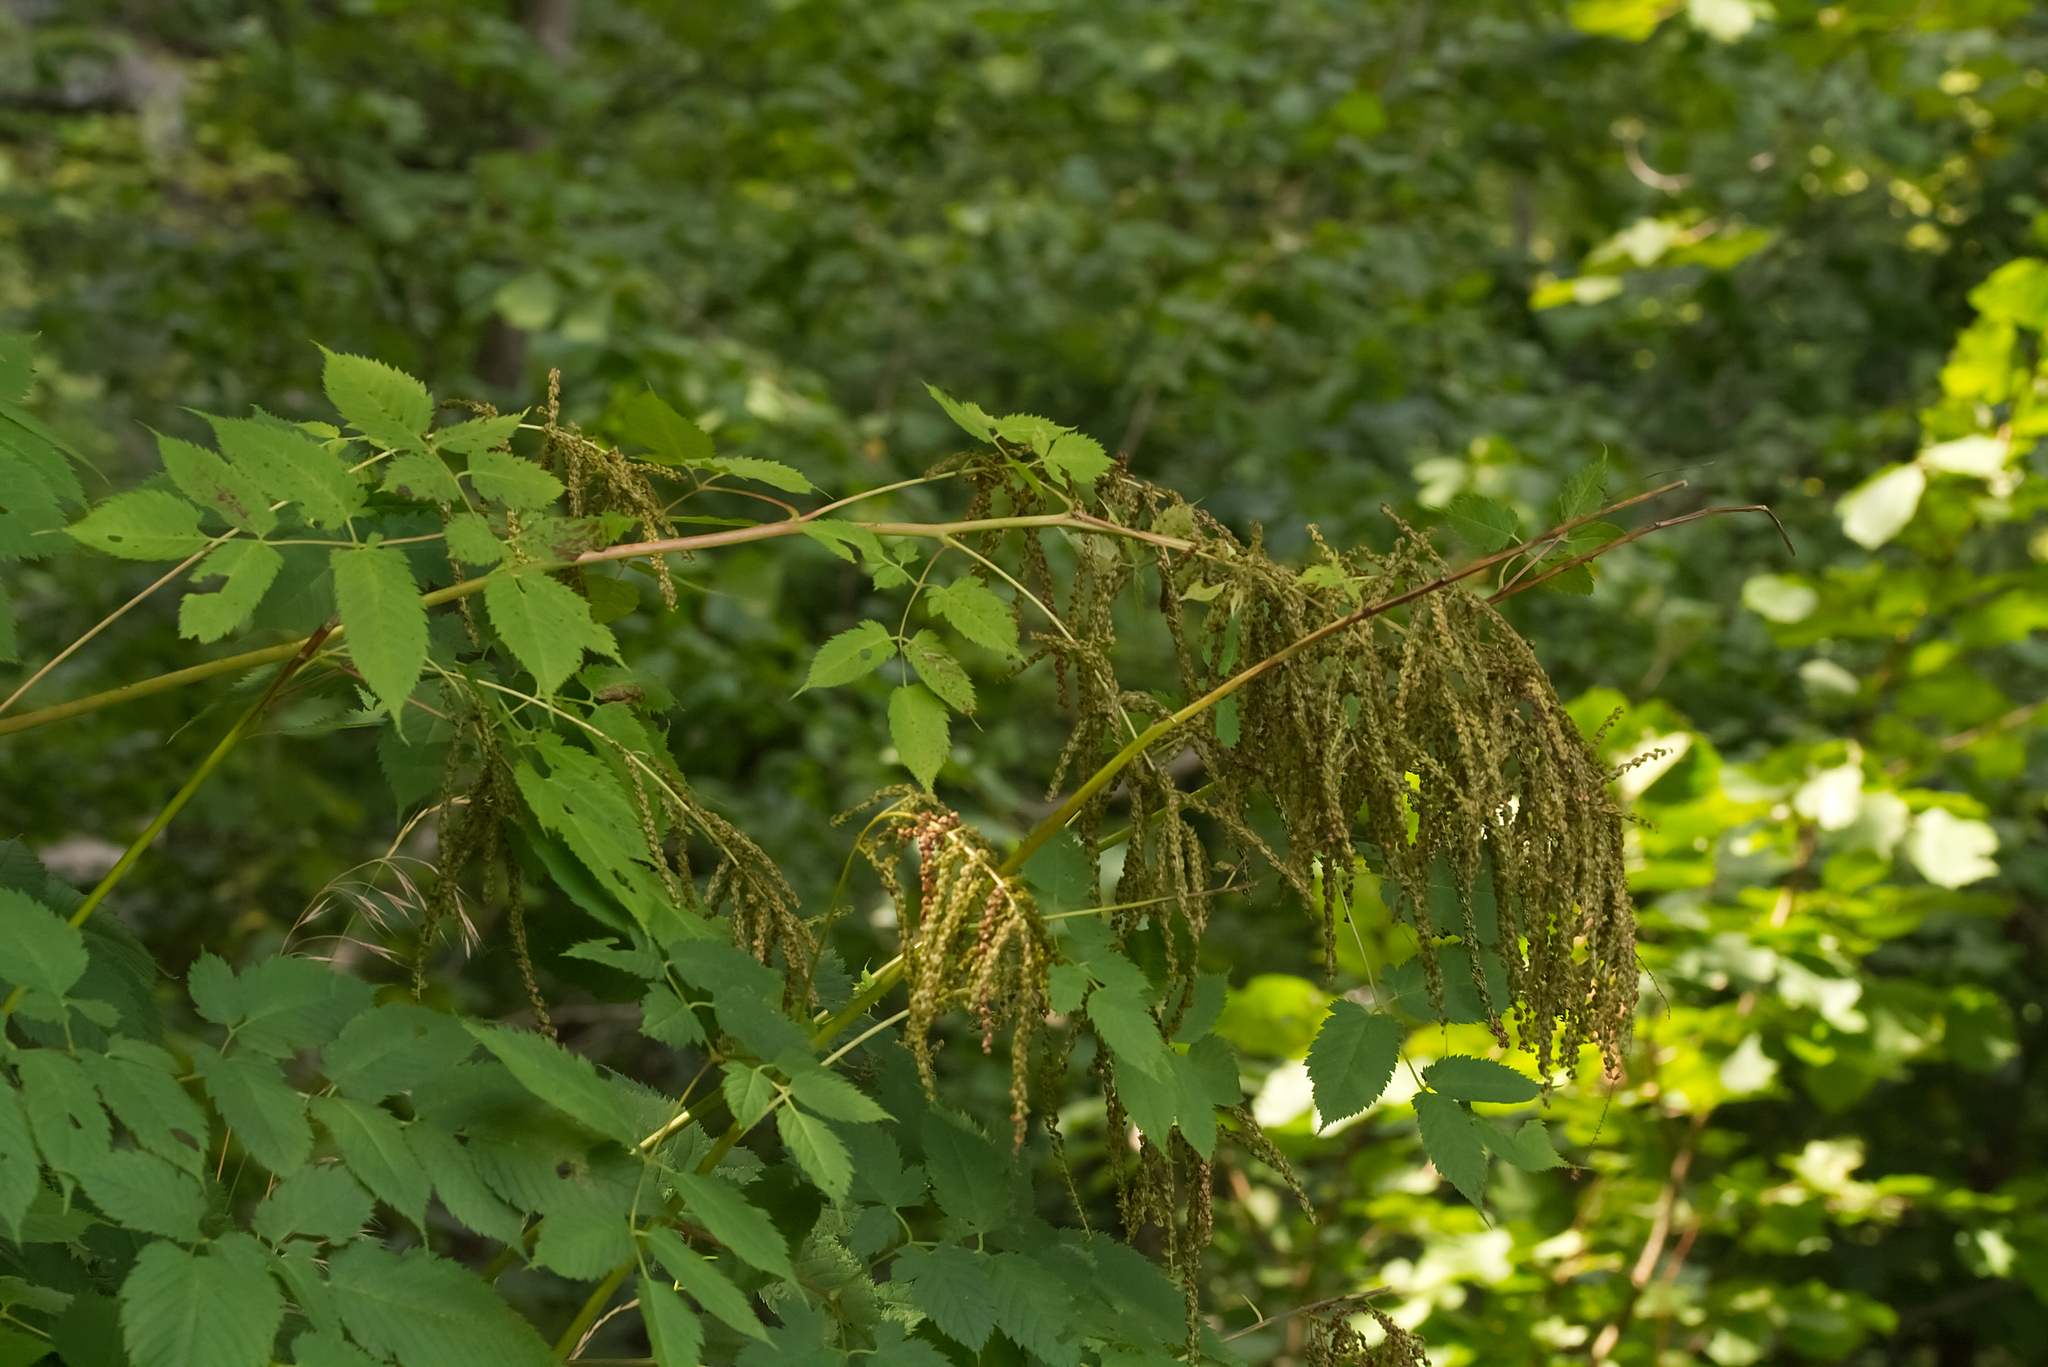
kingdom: Plantae
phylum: Tracheophyta
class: Magnoliopsida
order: Rosales
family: Rosaceae
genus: Aruncus
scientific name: Aruncus dioicus
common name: Buck's-beard
